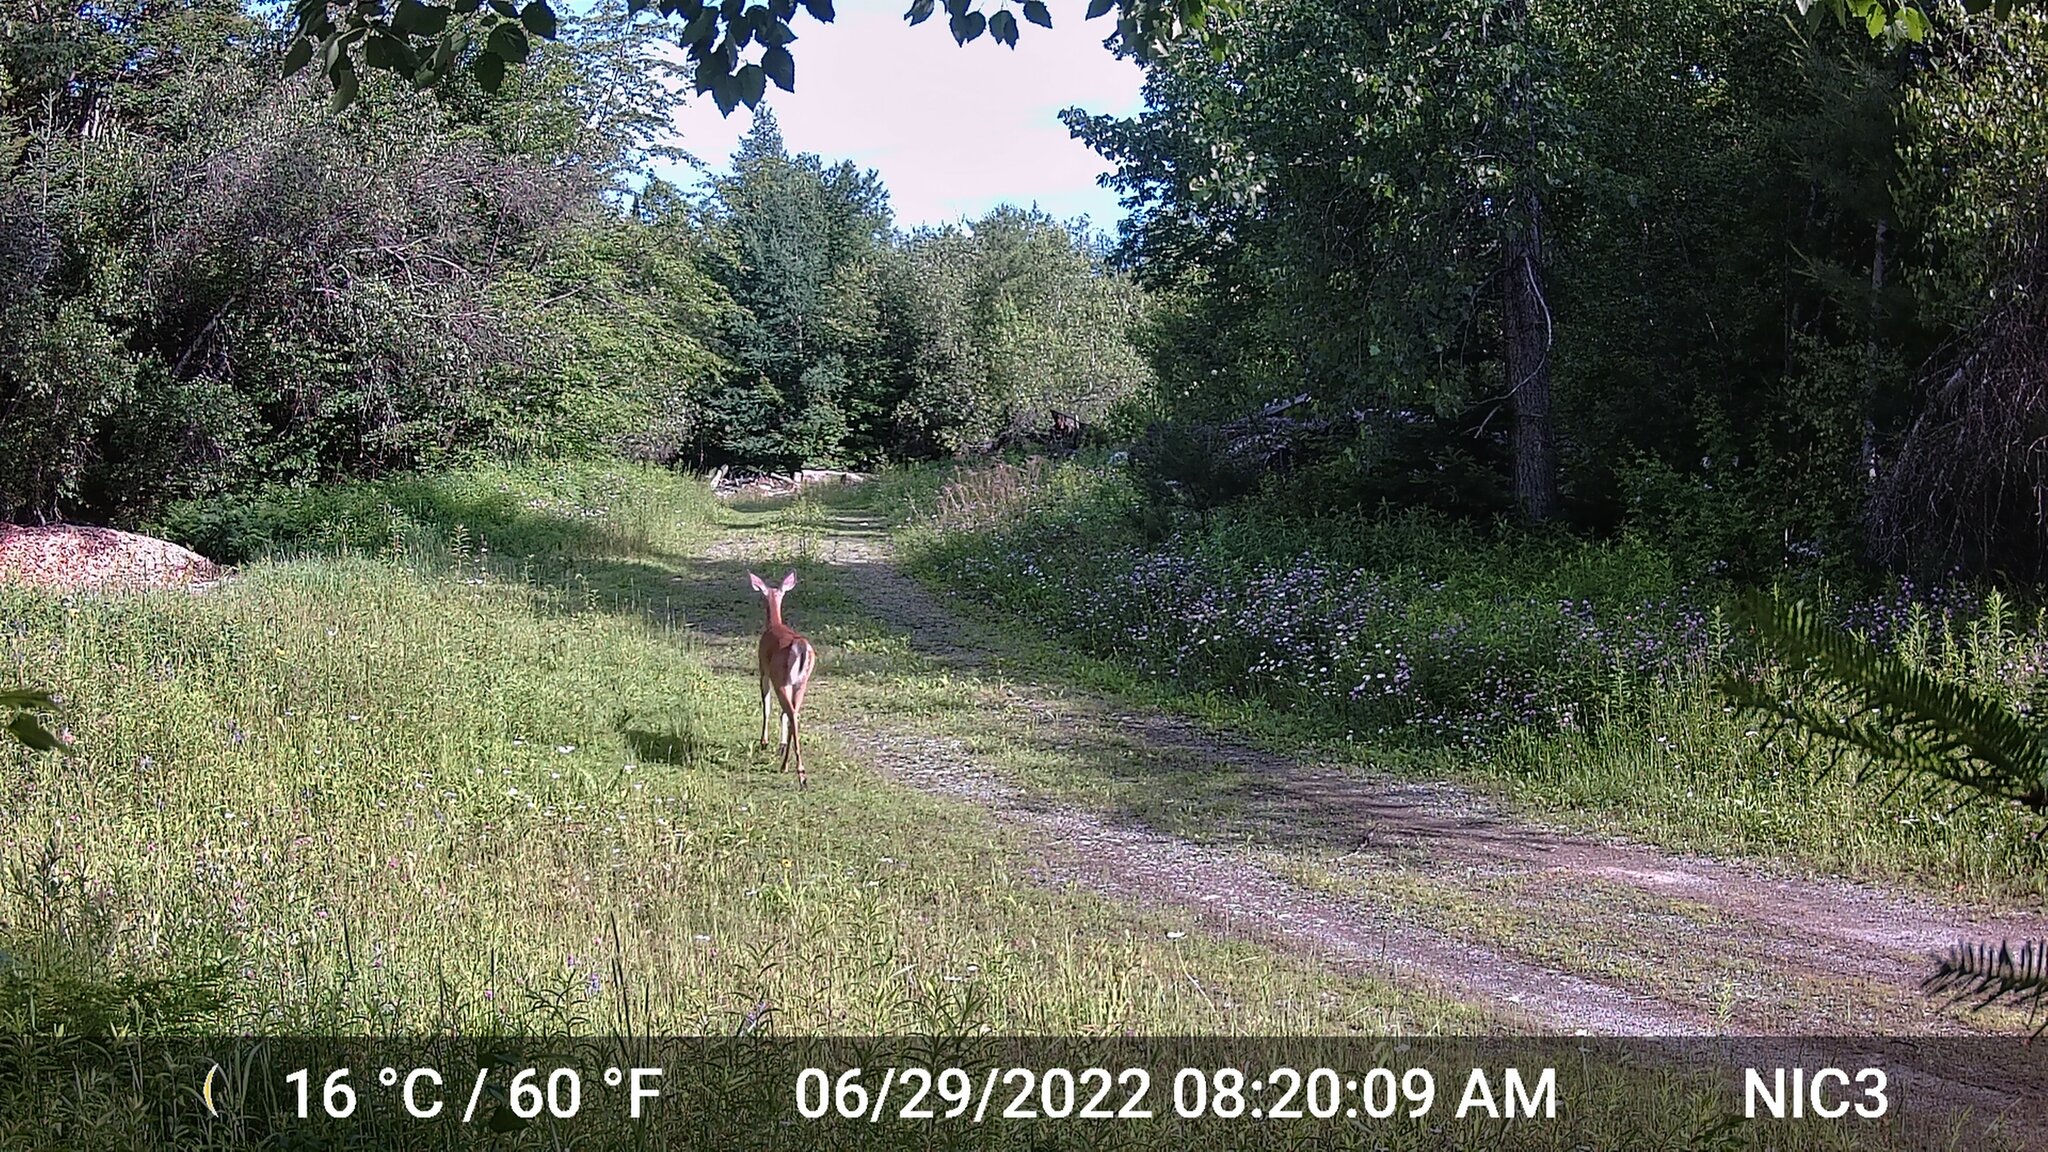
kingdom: Animalia
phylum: Chordata
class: Mammalia
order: Artiodactyla
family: Cervidae
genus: Odocoileus
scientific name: Odocoileus virginianus
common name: White-tailed deer
